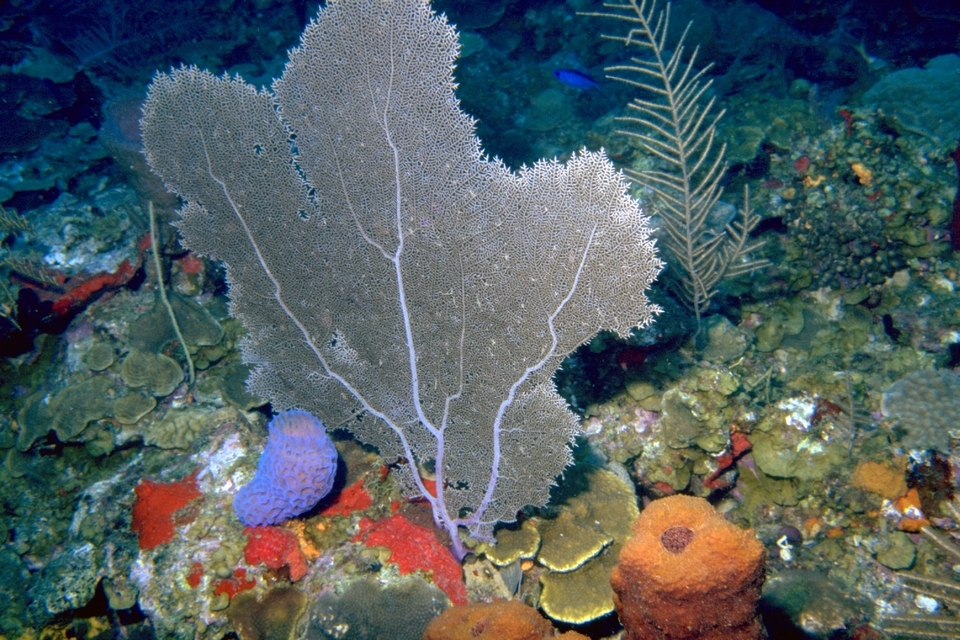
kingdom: Animalia
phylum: Cnidaria
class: Anthozoa
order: Malacalcyonacea
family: Gorgoniidae
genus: Gorgonia
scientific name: Gorgonia ventalina
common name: Common sea fan
